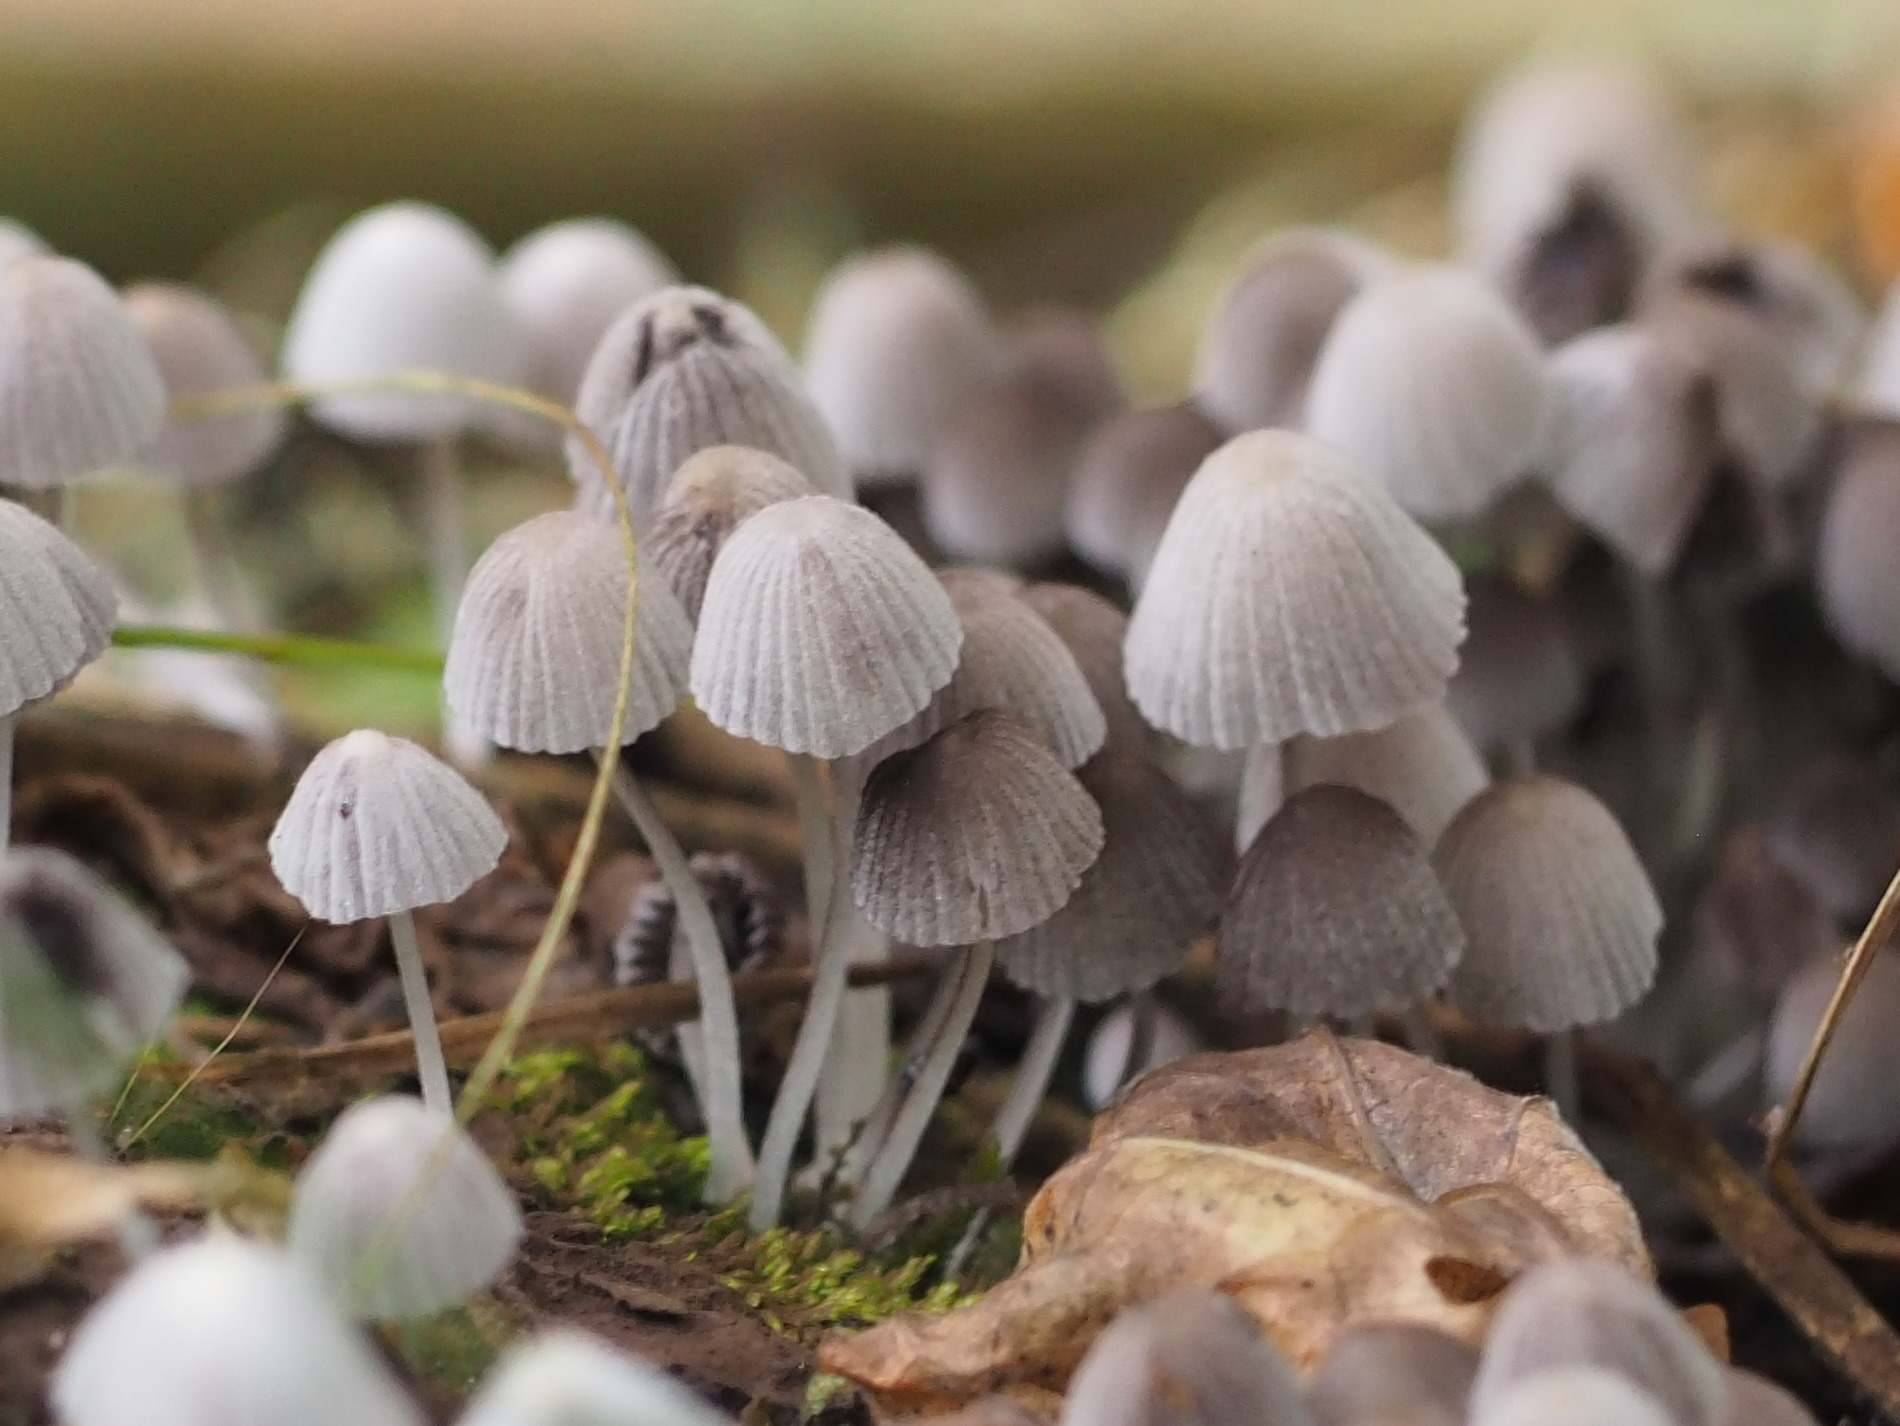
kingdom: Fungi
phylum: Basidiomycota
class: Agaricomycetes
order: Agaricales
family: Psathyrellaceae
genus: Coprinellus
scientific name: Coprinellus disseminatus
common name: Fairies' bonnets
